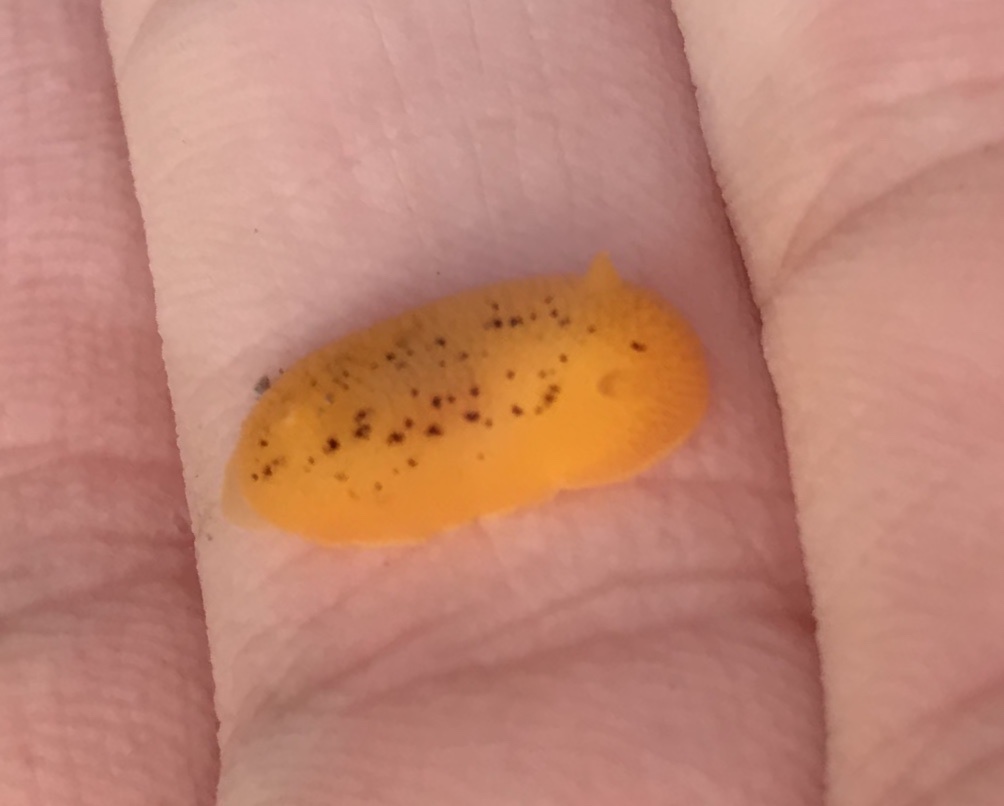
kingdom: Animalia
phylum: Mollusca
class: Gastropoda
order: Nudibranchia
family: Discodorididae
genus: Peltodoris
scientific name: Peltodoris nobilis
